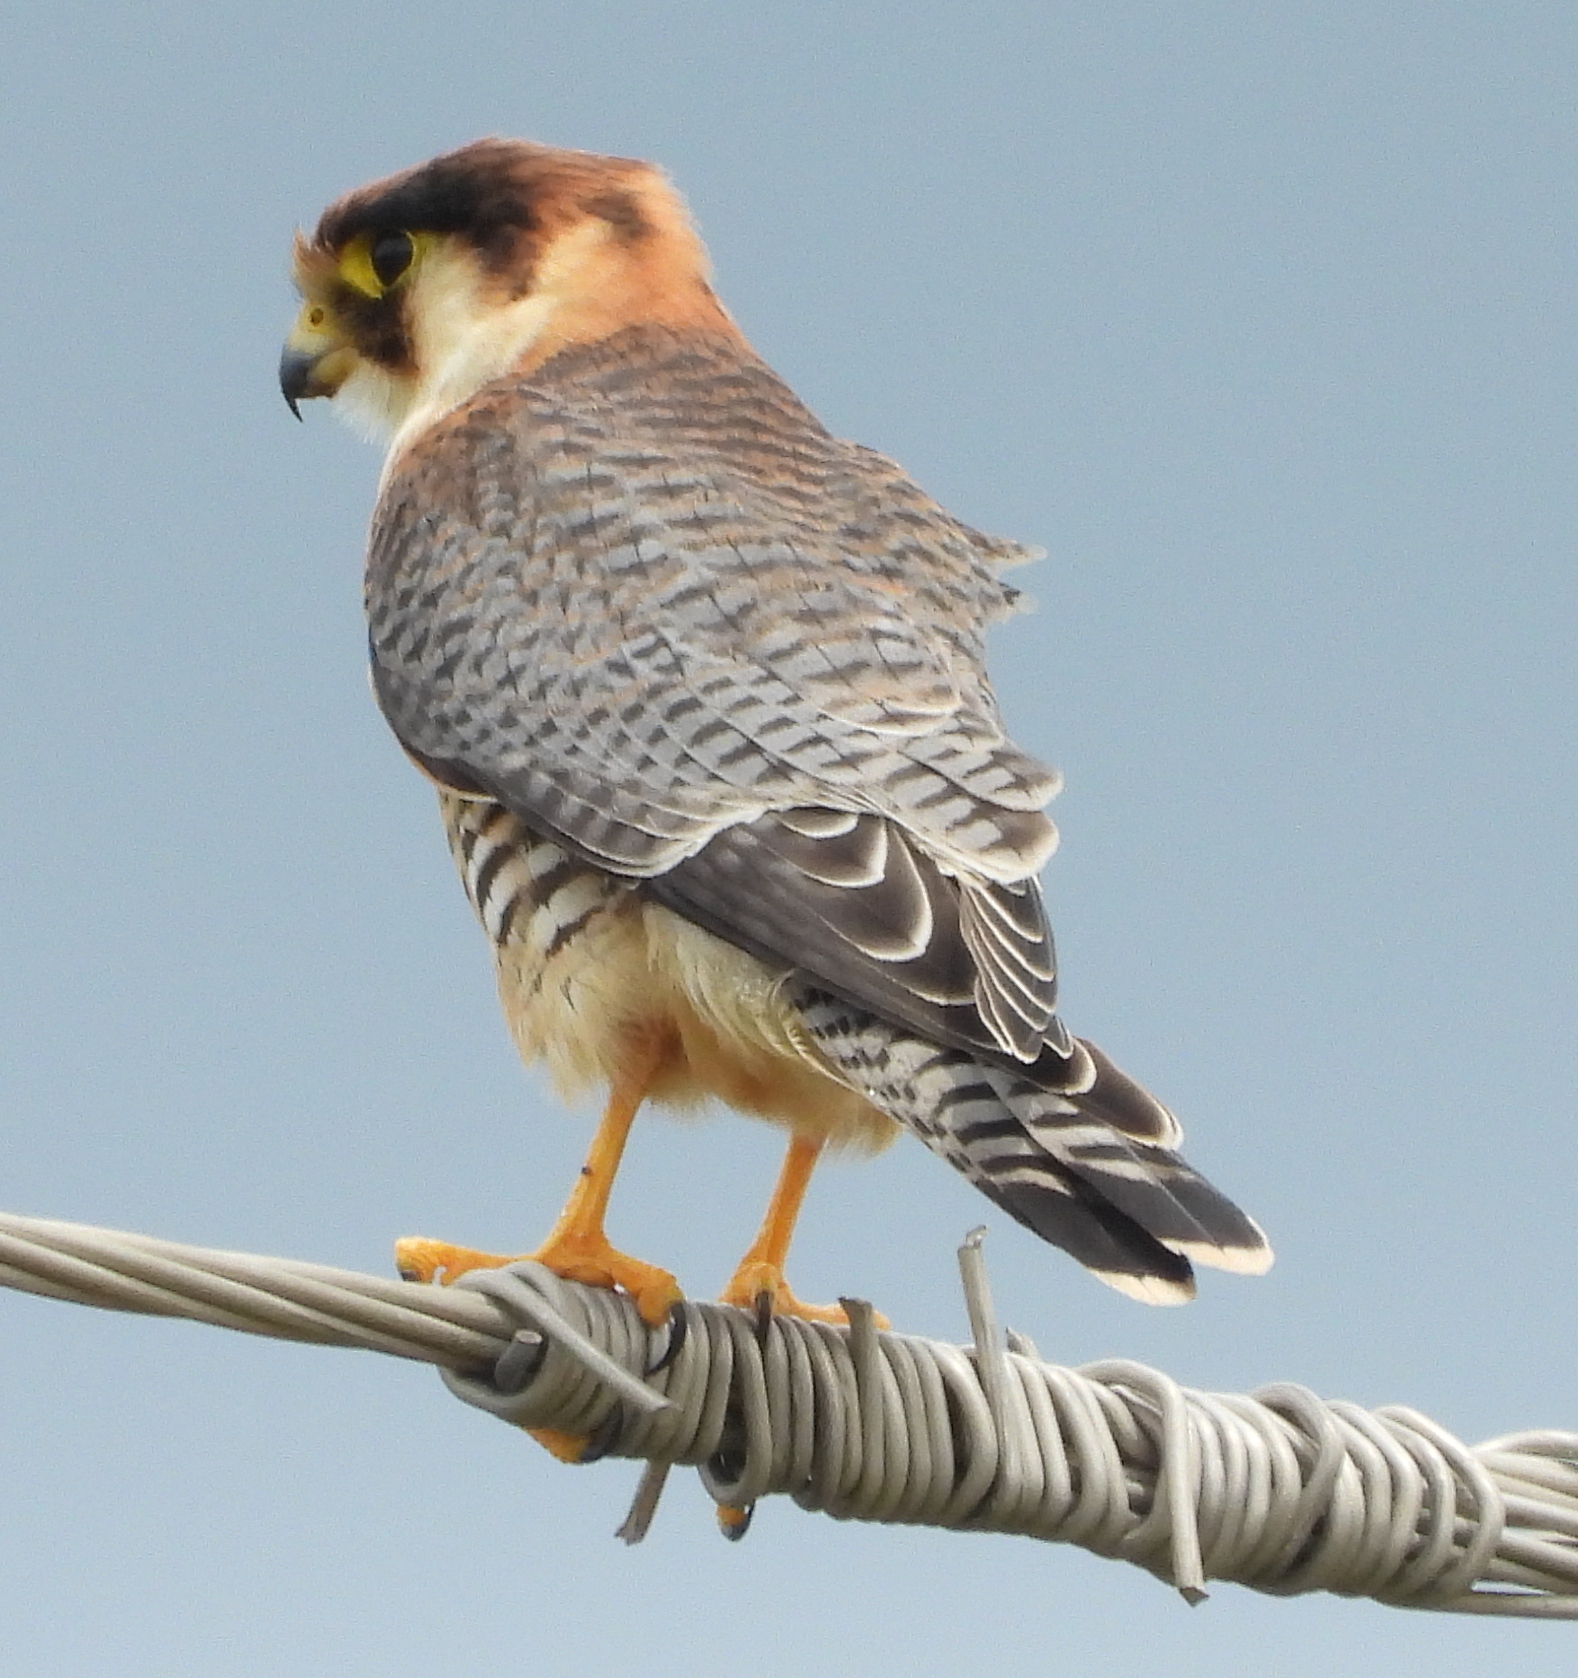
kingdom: Animalia
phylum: Chordata
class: Aves
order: Falconiformes
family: Falconidae
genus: Falco
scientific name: Falco chicquera
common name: Red-necked falcon
